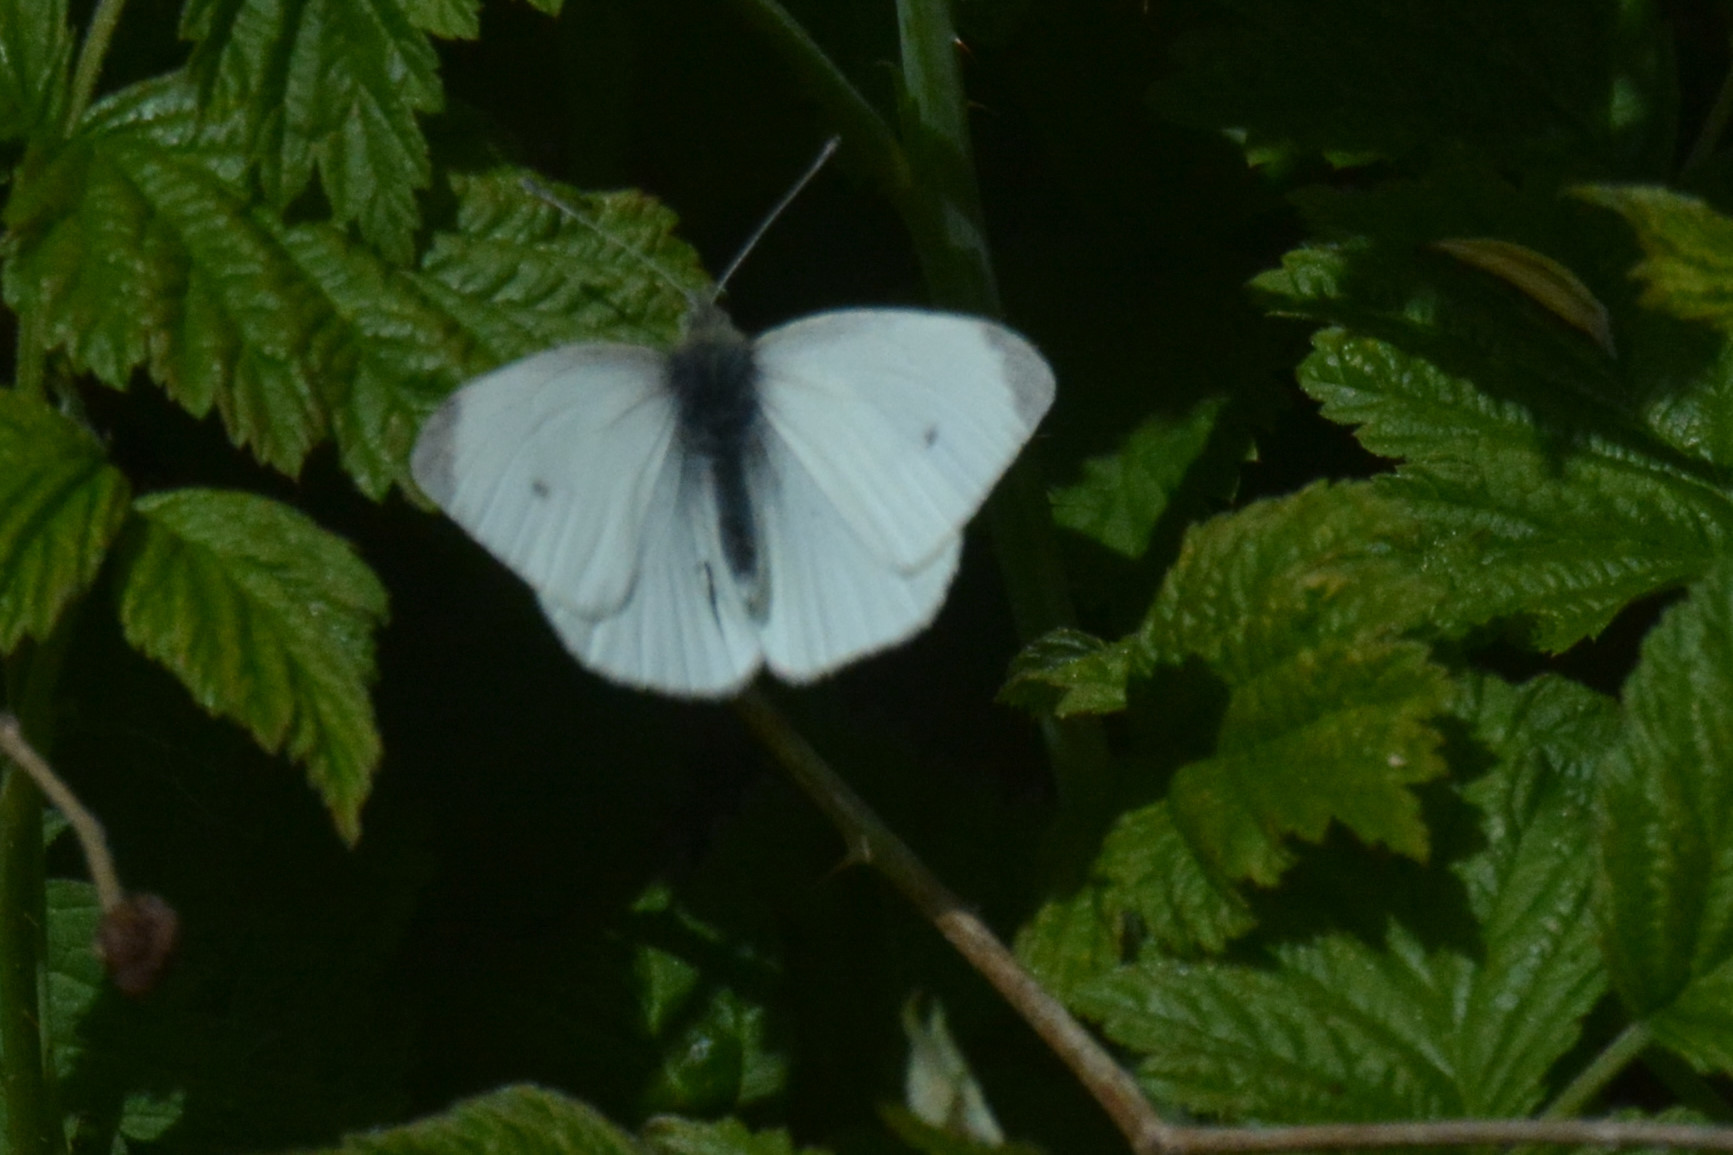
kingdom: Animalia
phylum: Arthropoda
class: Insecta
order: Lepidoptera
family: Pieridae
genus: Pieris
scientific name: Pieris rapae
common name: Small white
